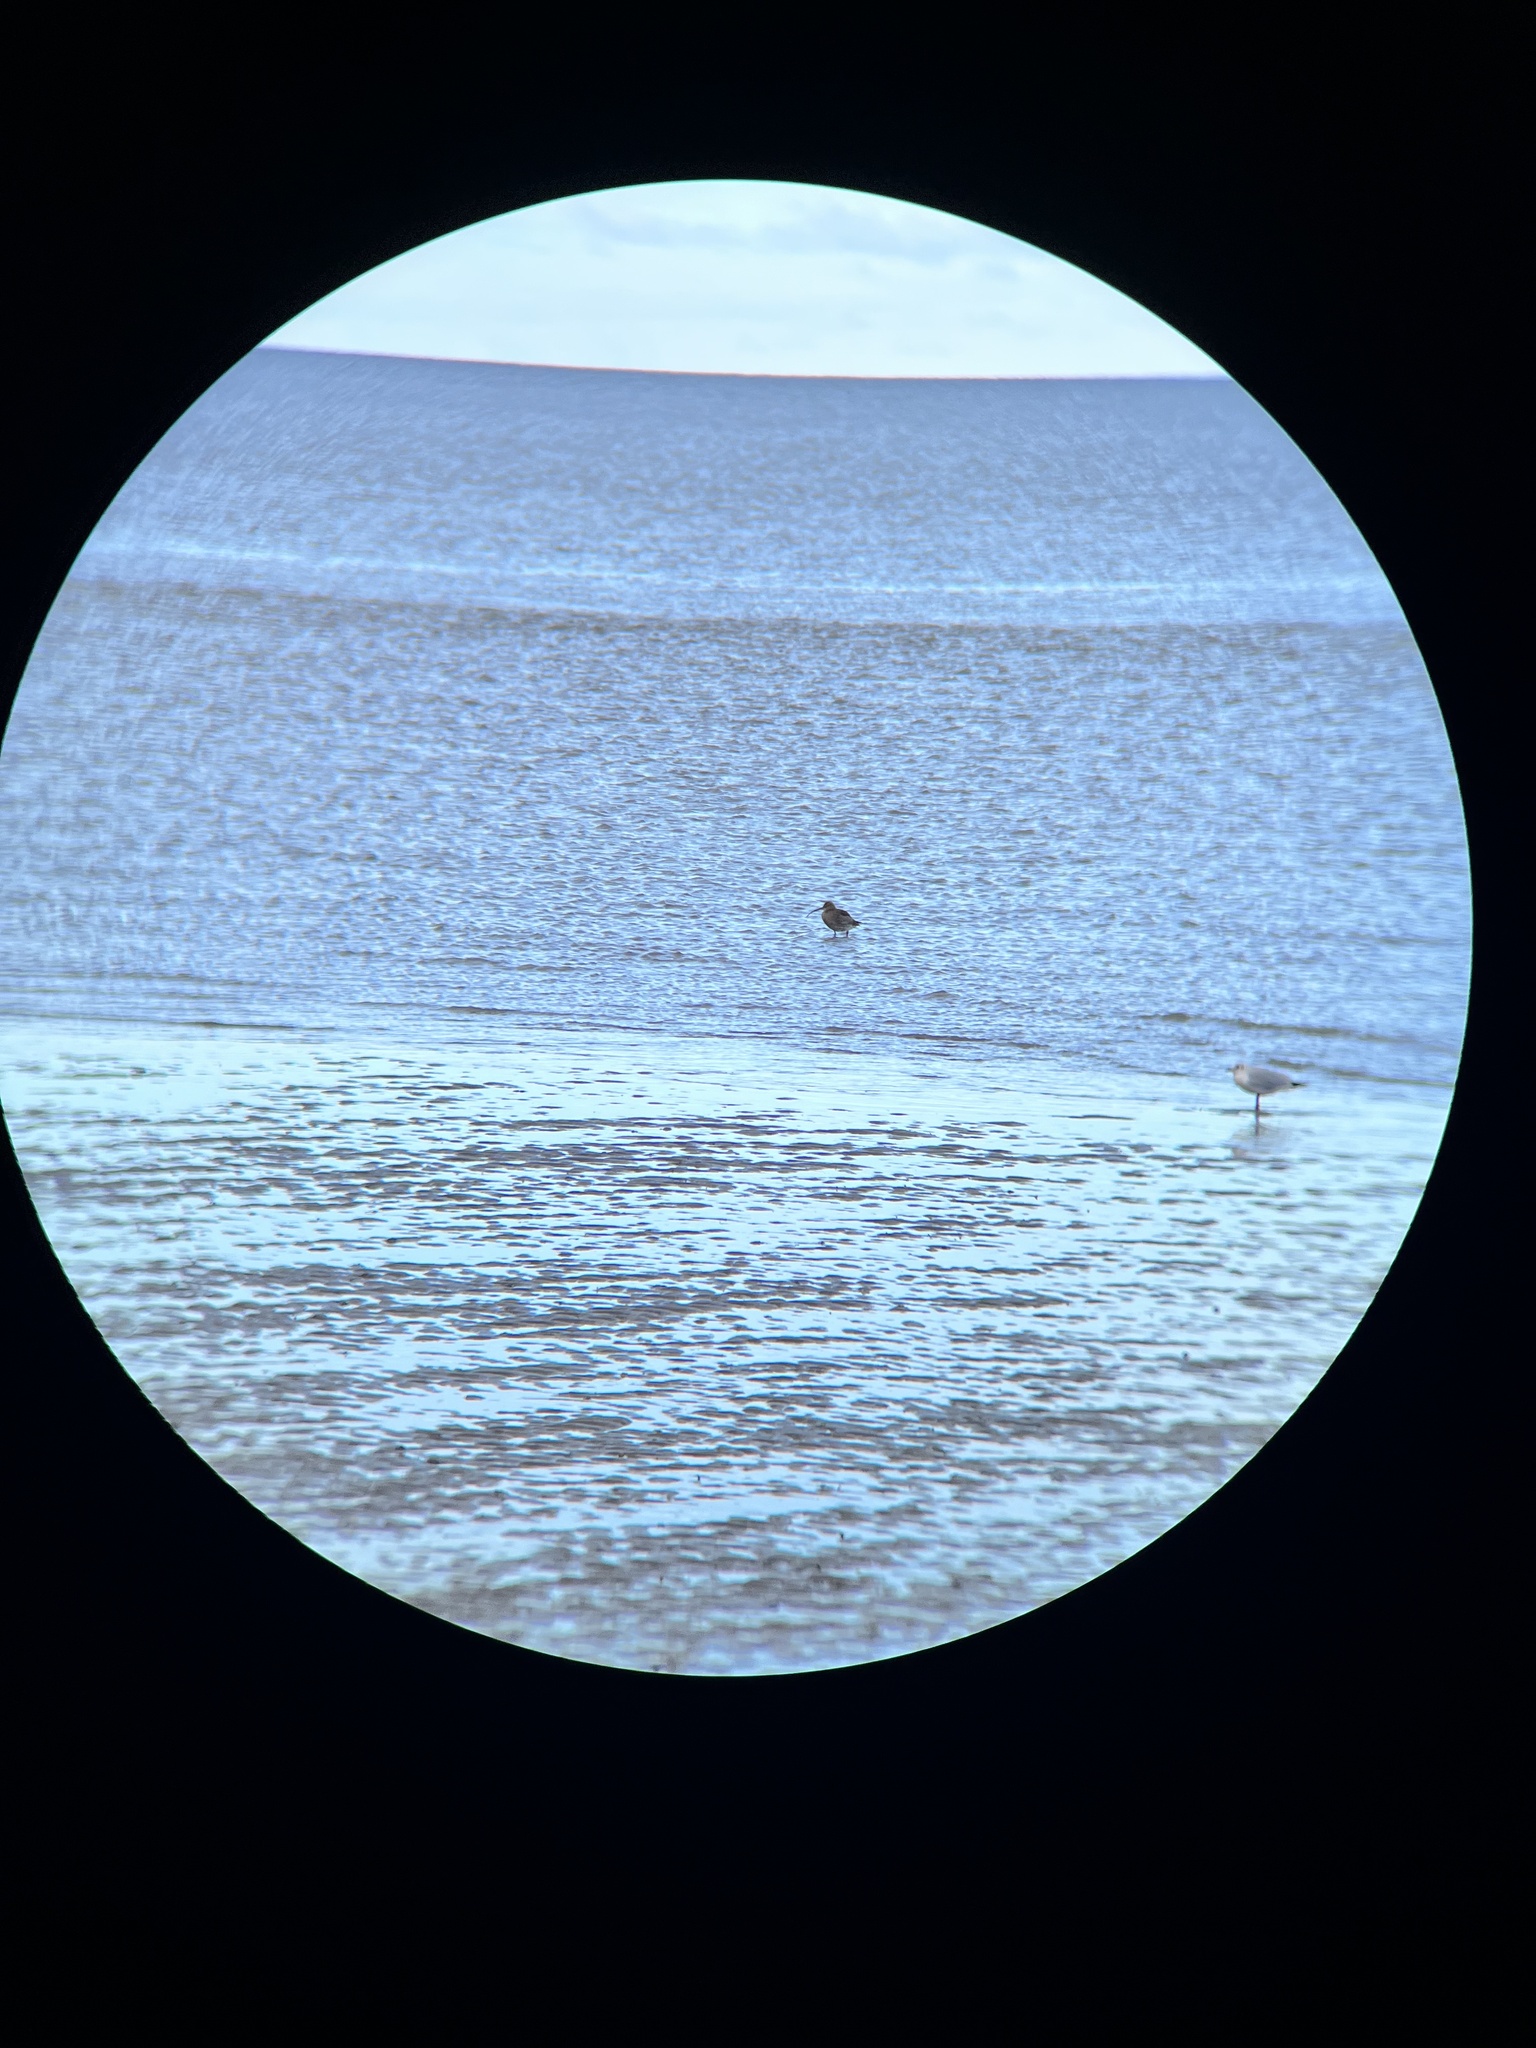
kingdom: Animalia
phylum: Chordata
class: Aves
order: Charadriiformes
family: Scolopacidae
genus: Numenius
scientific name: Numenius arquata
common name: Eurasian curlew
